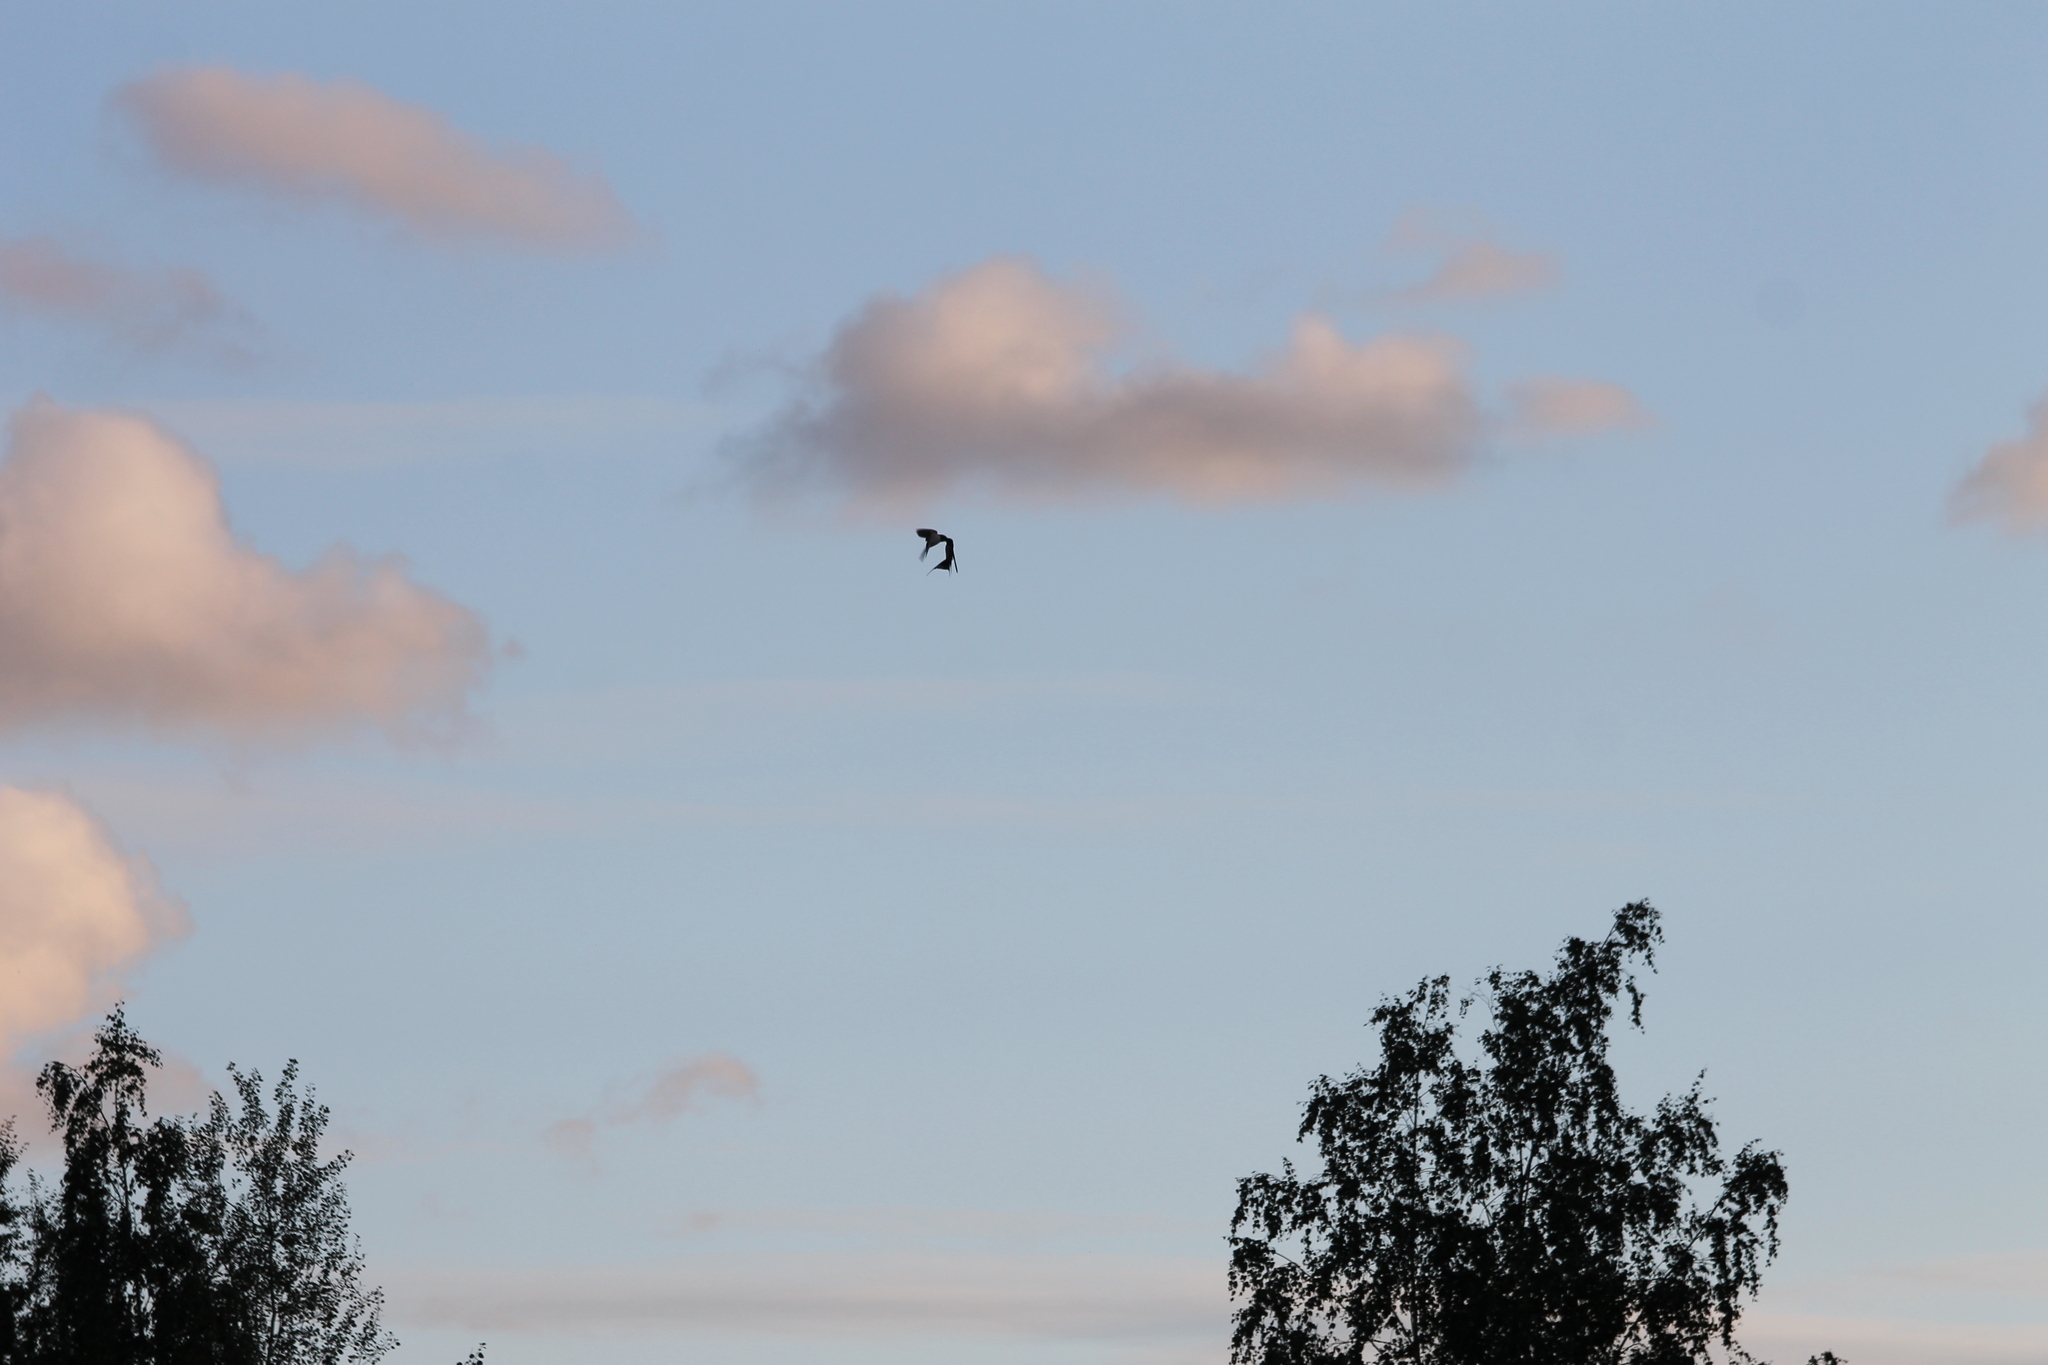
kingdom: Animalia
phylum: Chordata
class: Aves
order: Passeriformes
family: Hirundinidae
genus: Hirundo
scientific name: Hirundo rustica
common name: Barn swallow
